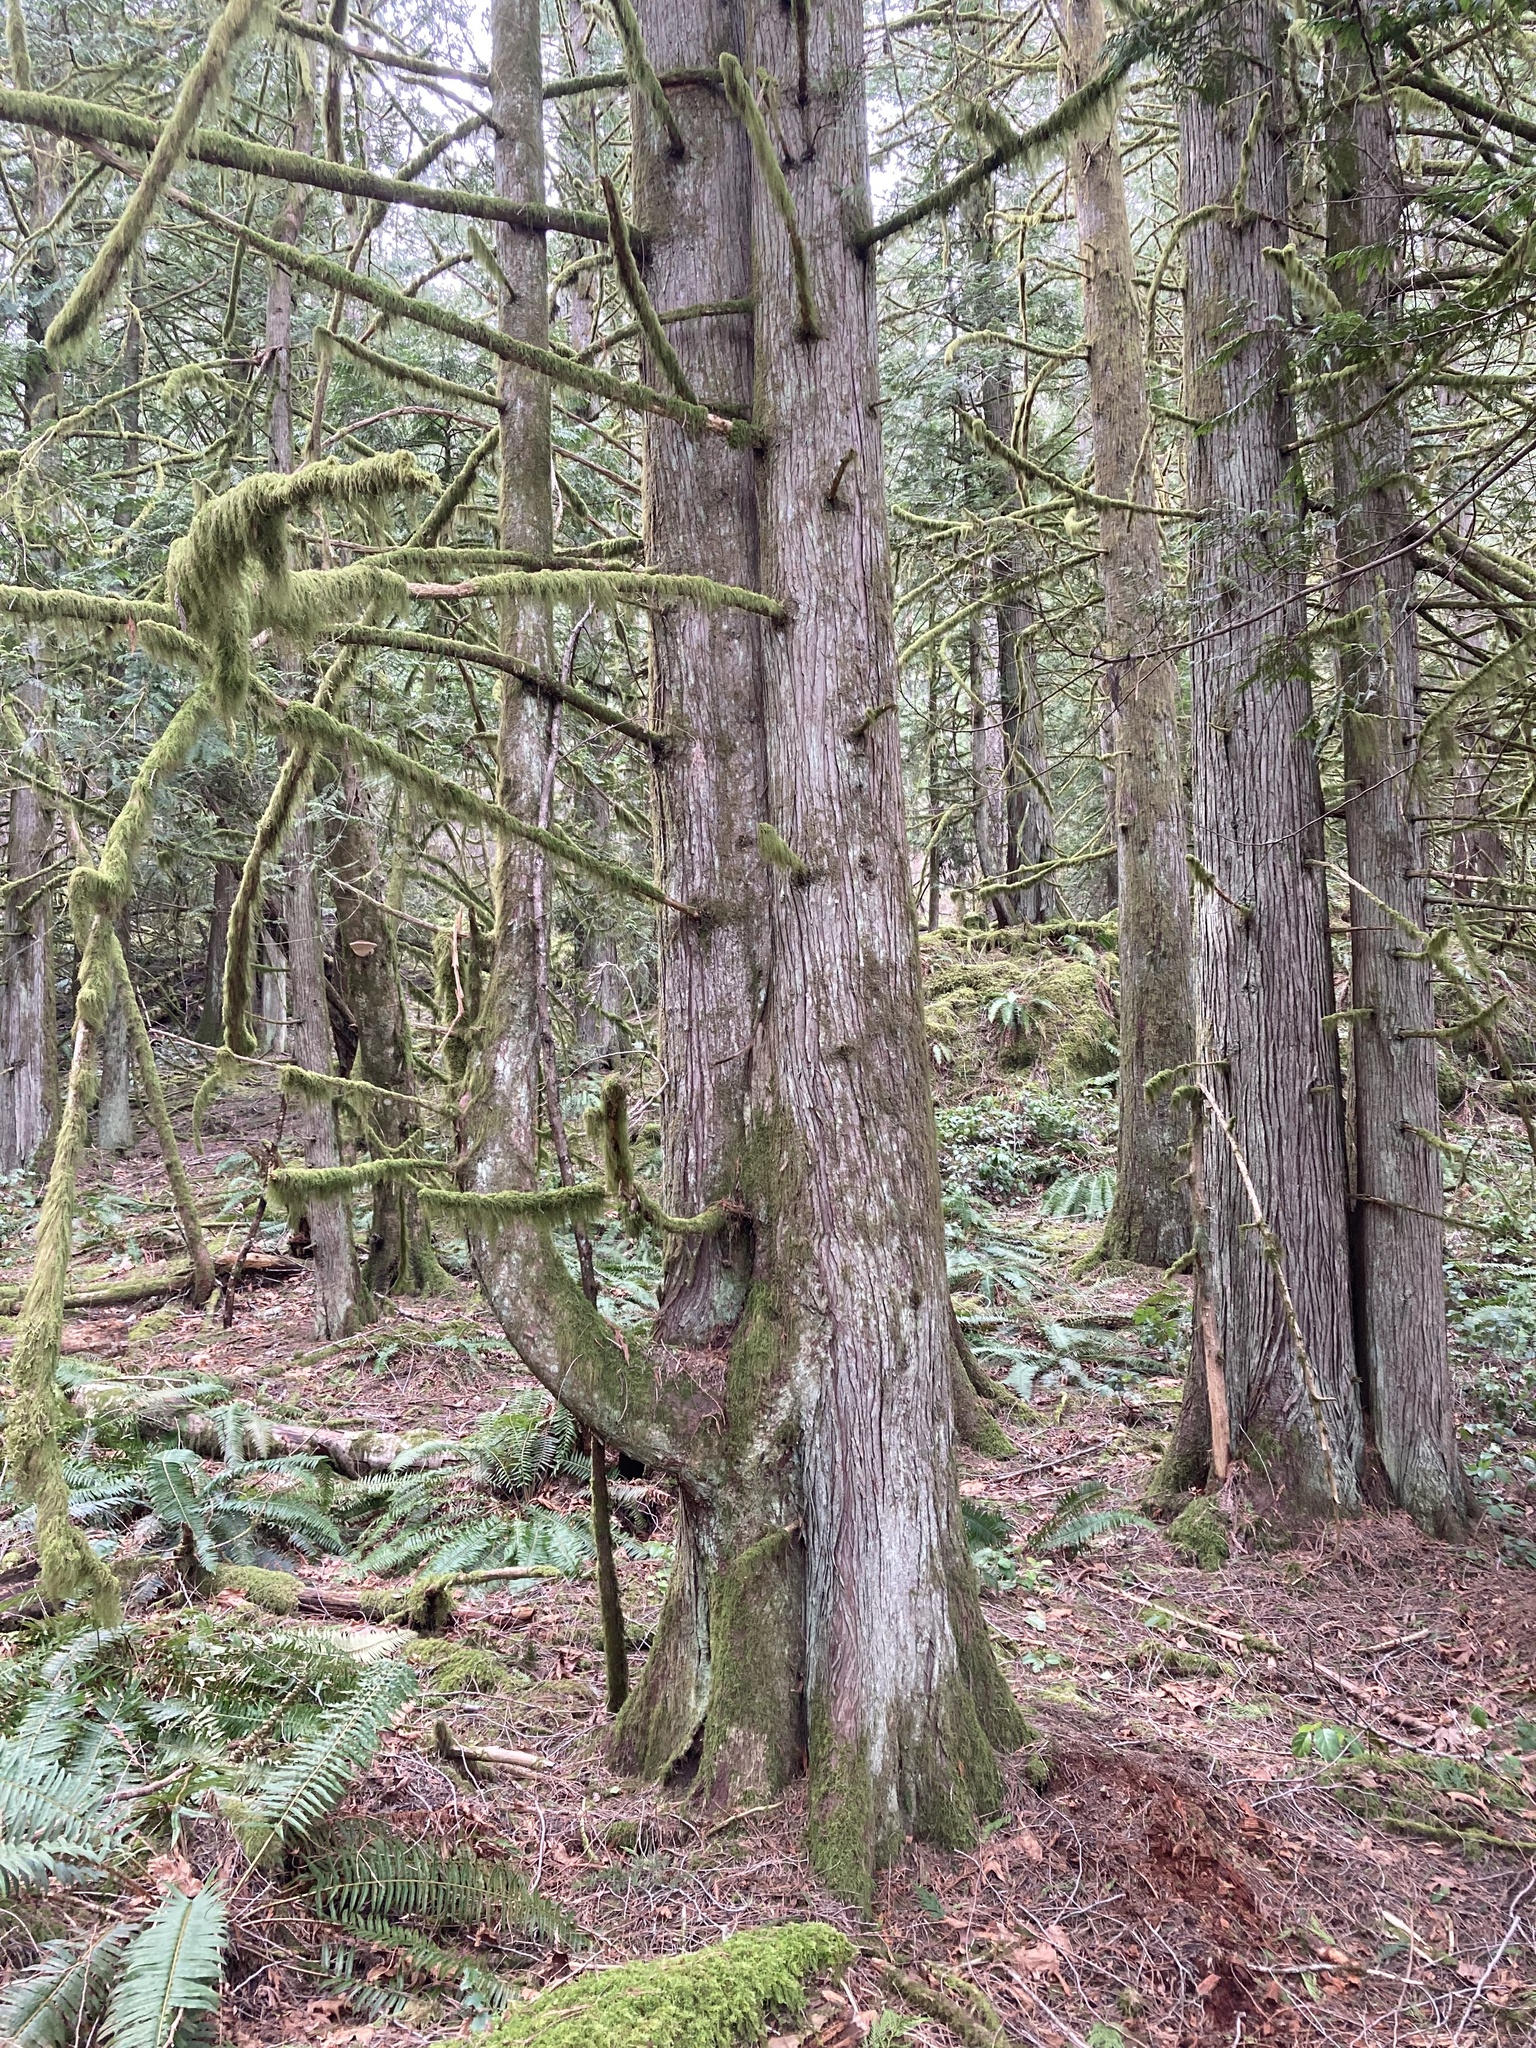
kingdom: Plantae
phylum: Tracheophyta
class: Pinopsida
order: Pinales
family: Cupressaceae
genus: Thuja
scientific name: Thuja plicata
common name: Western red-cedar
